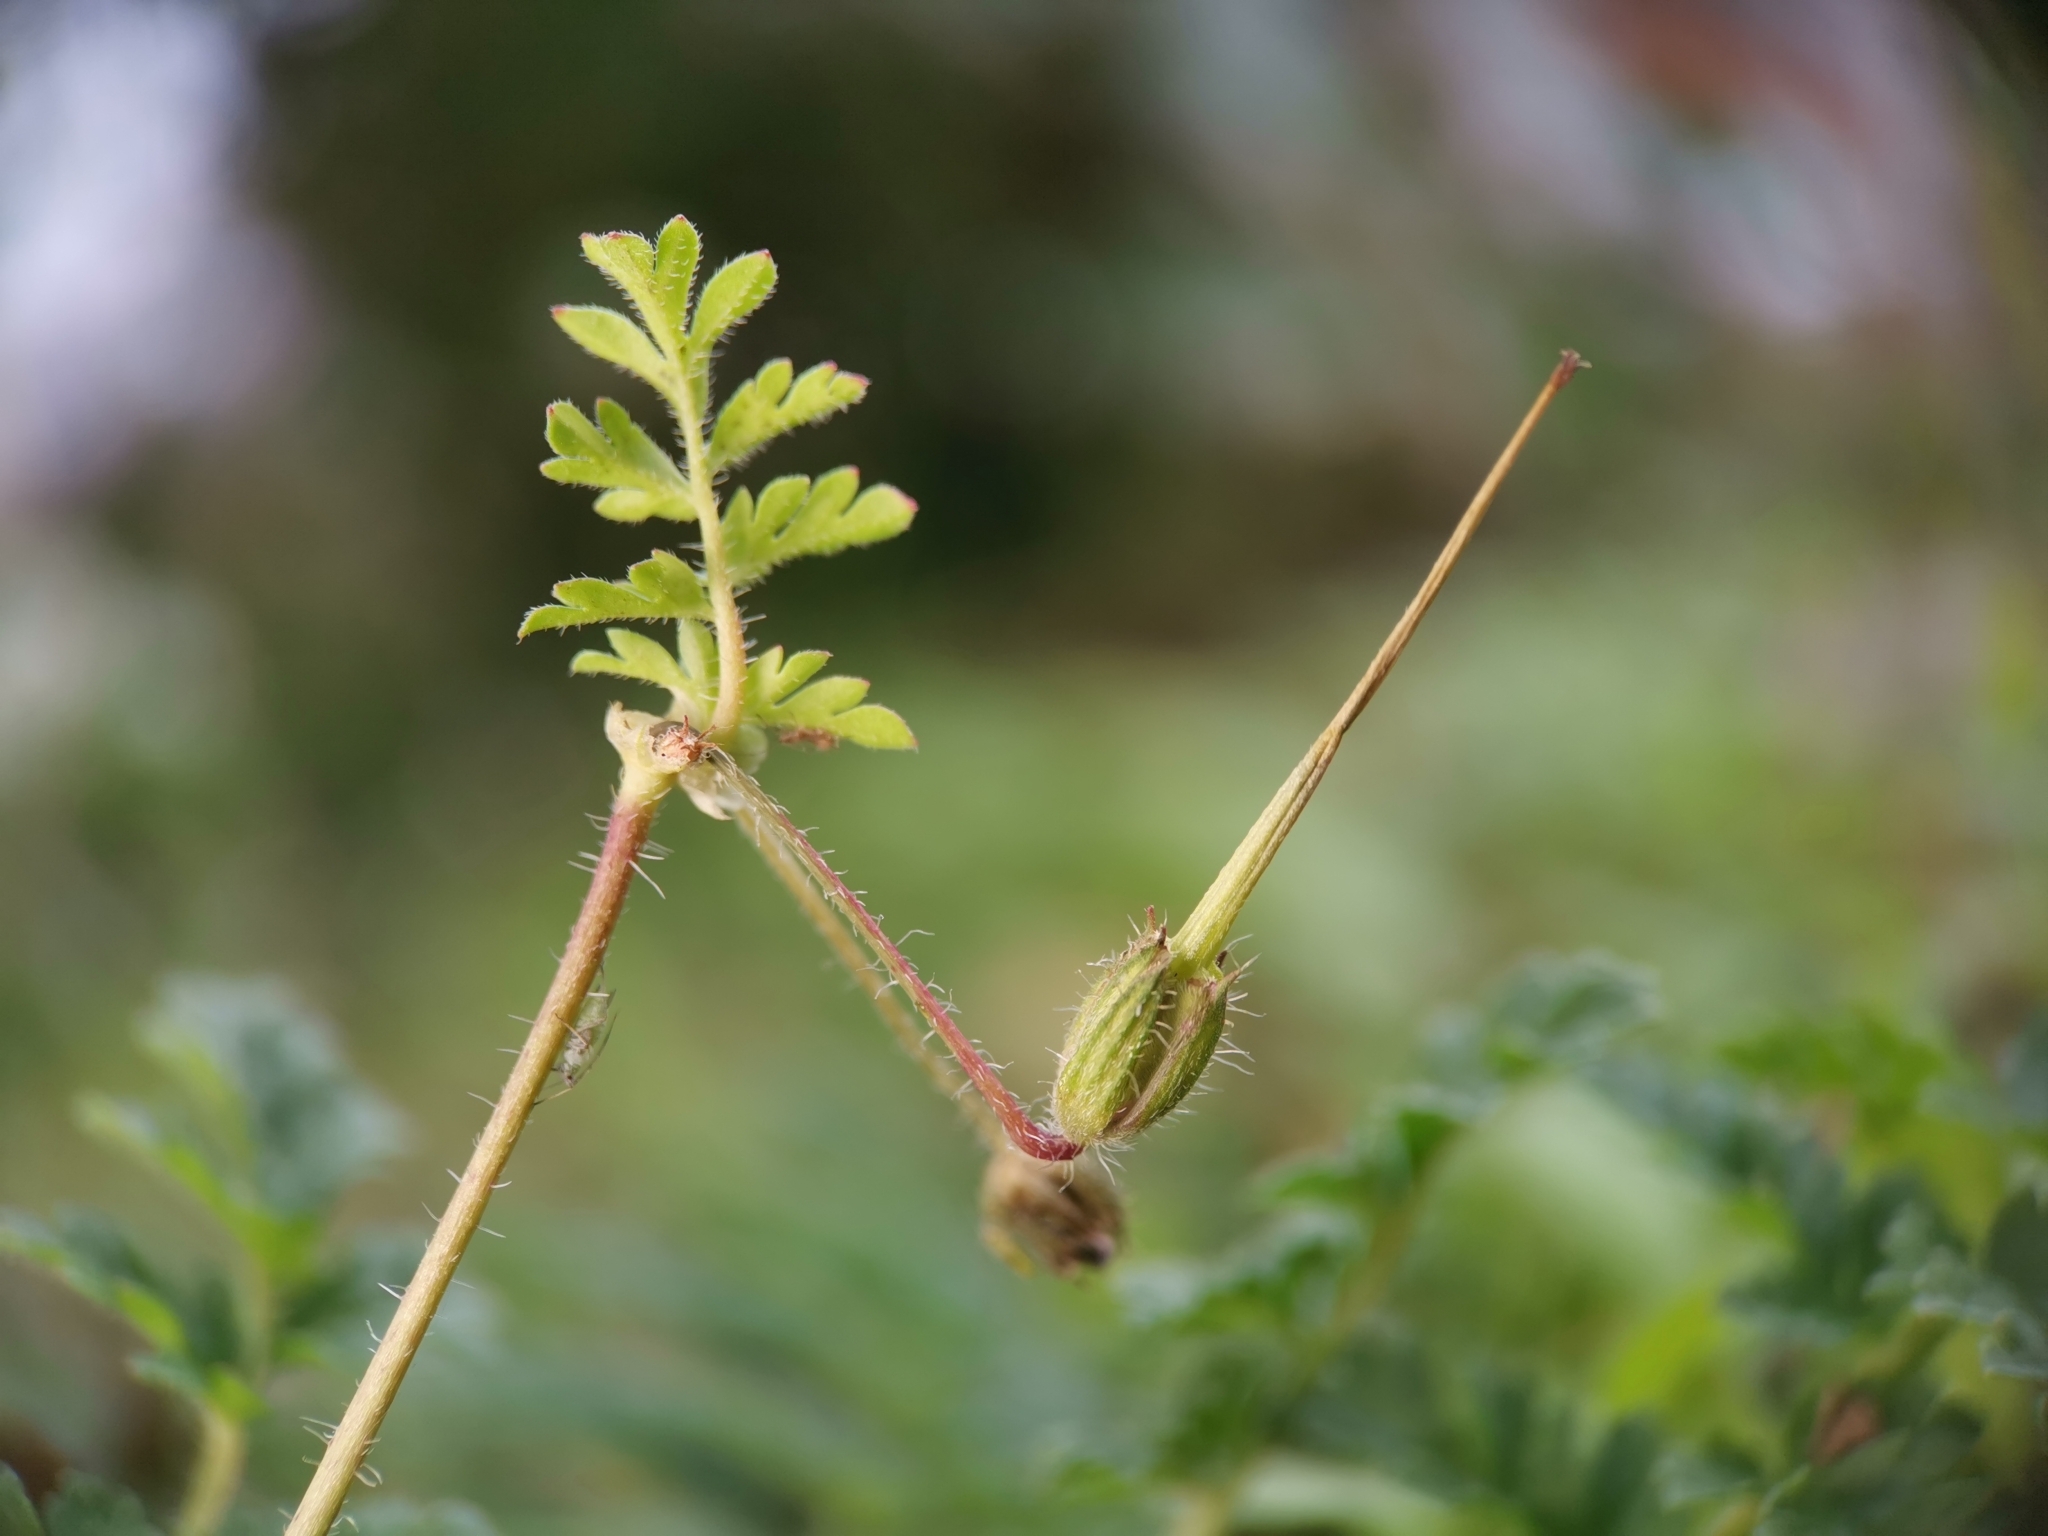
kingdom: Plantae
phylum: Tracheophyta
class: Magnoliopsida
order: Geraniales
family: Geraniaceae
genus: Erodium
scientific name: Erodium cicutarium
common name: Common stork's-bill
